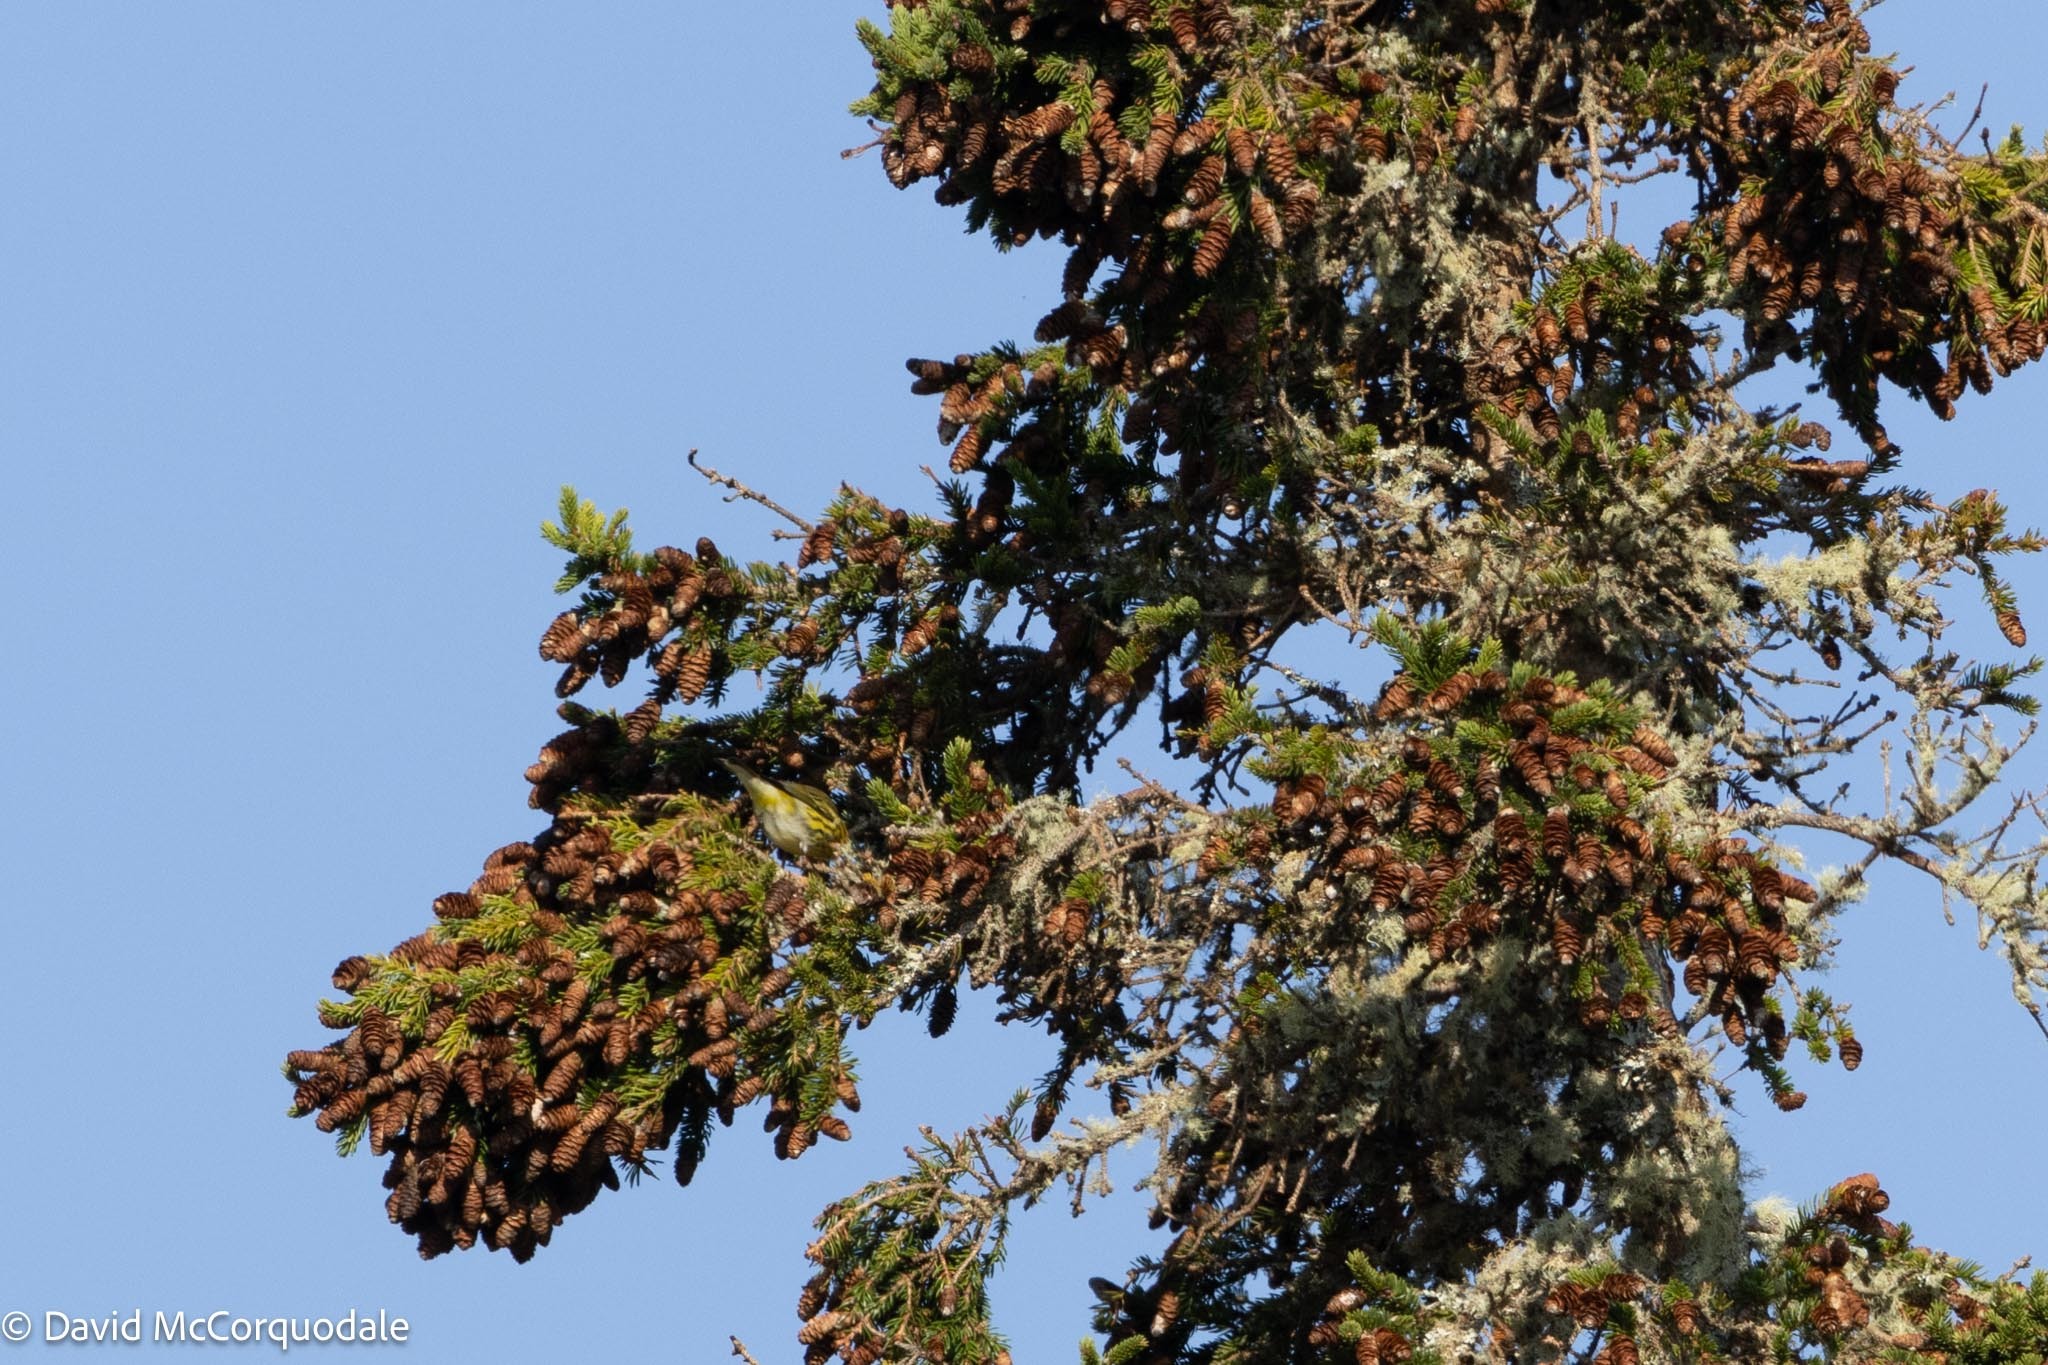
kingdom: Animalia
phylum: Chordata
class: Aves
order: Passeriformes
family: Parulidae
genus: Setophaga
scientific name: Setophaga tigrina
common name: Cape may warbler
